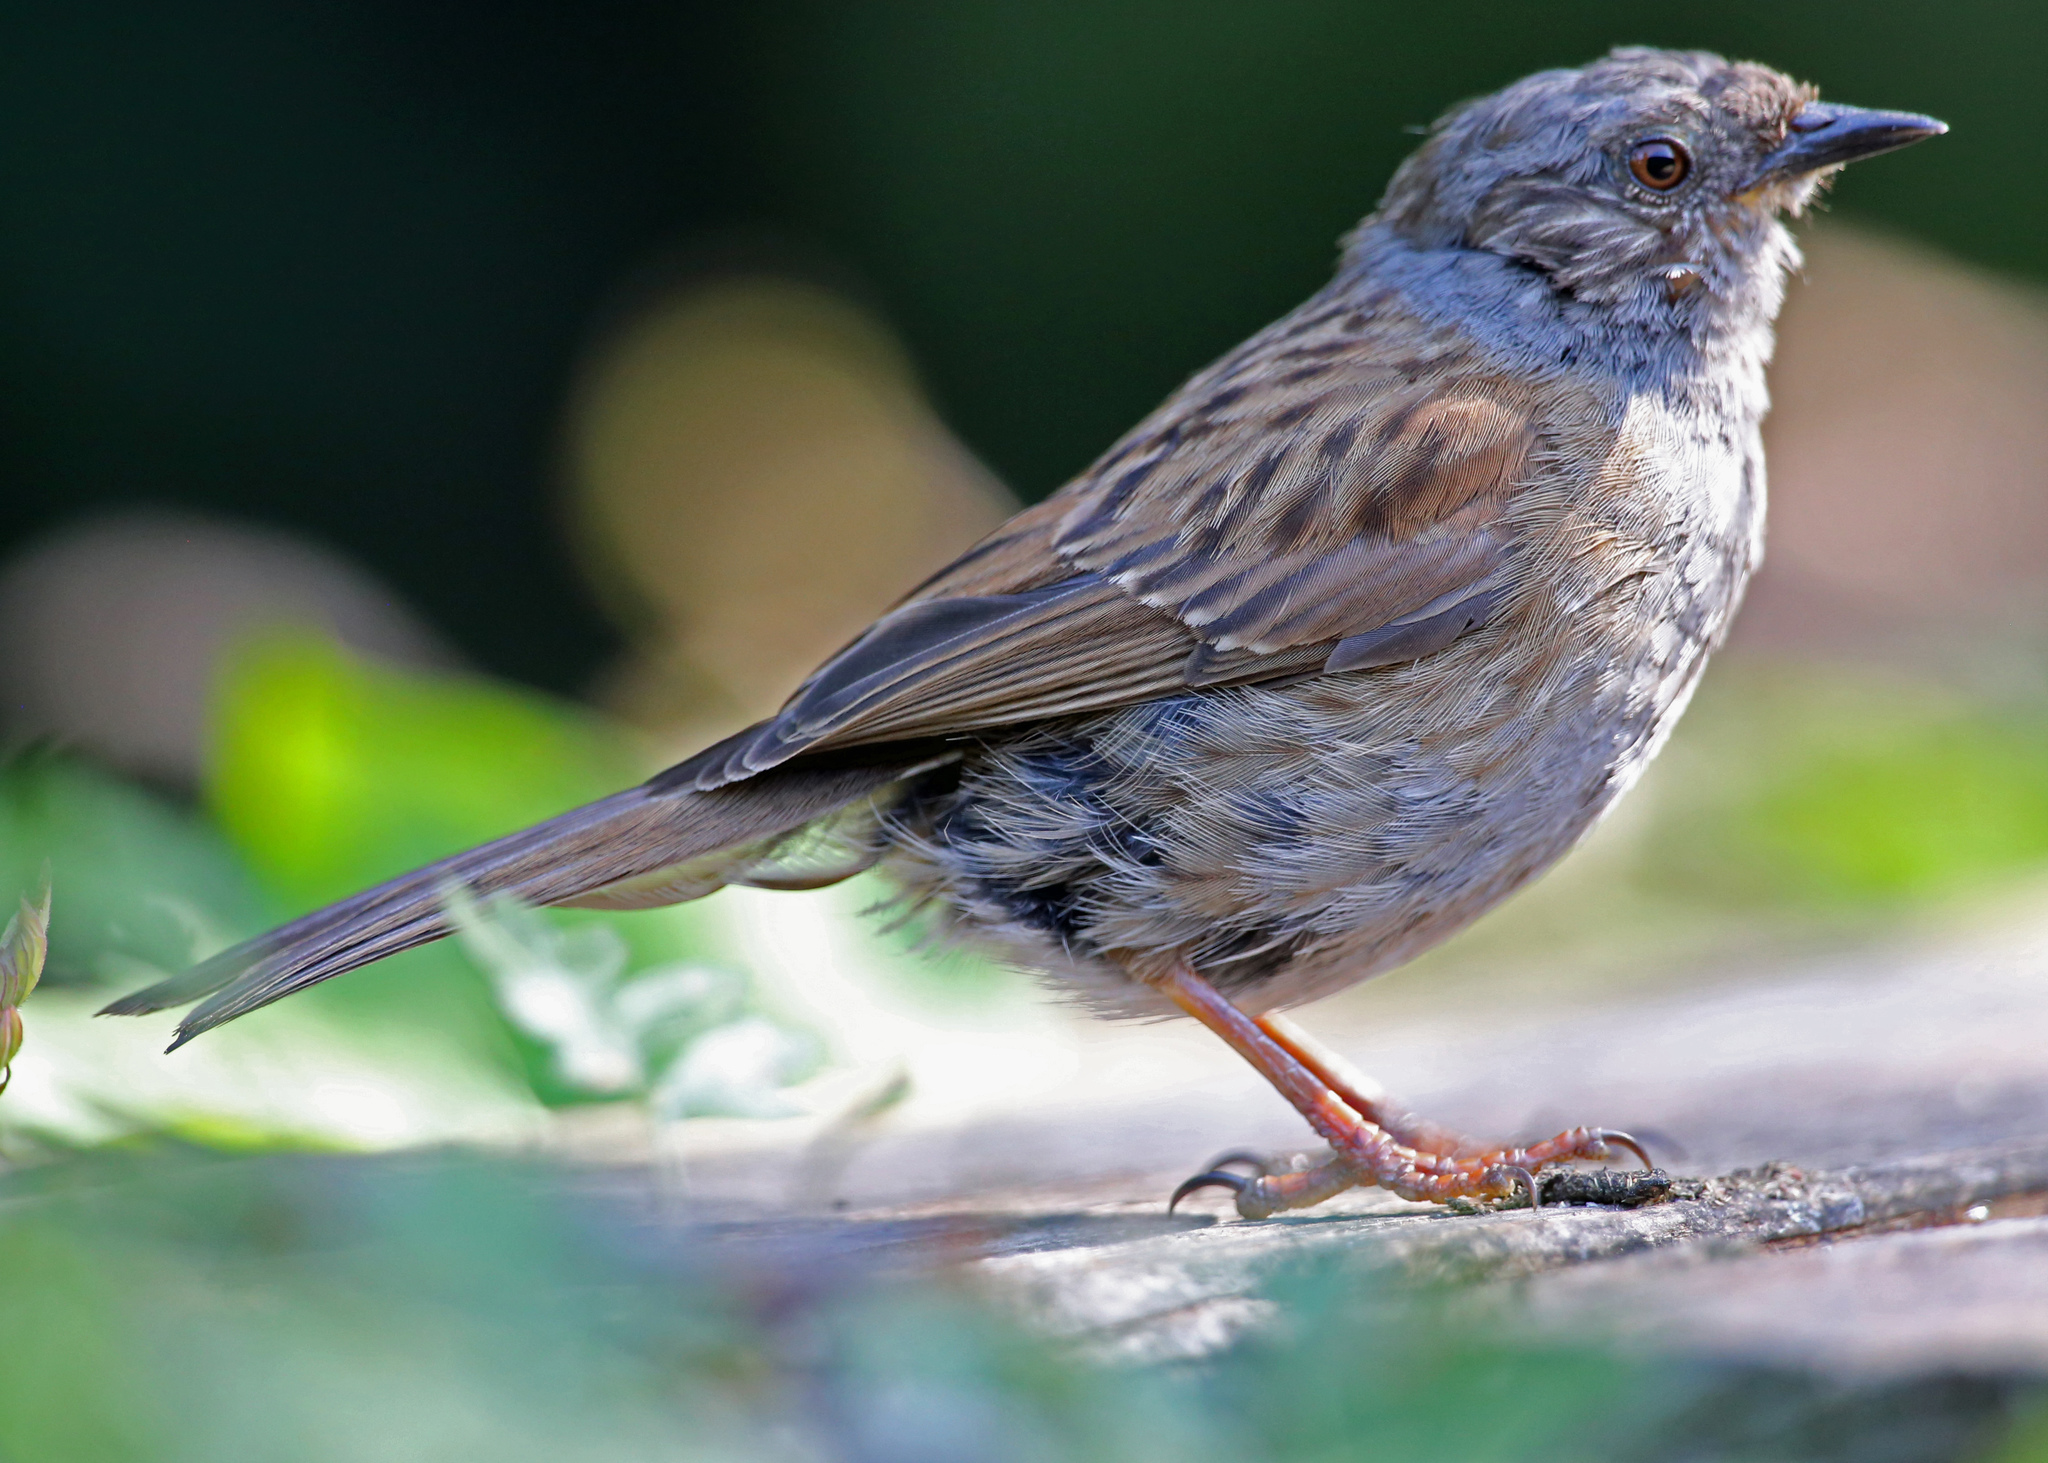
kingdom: Animalia
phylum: Chordata
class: Aves
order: Passeriformes
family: Prunellidae
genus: Prunella
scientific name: Prunella modularis
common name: Dunnock
